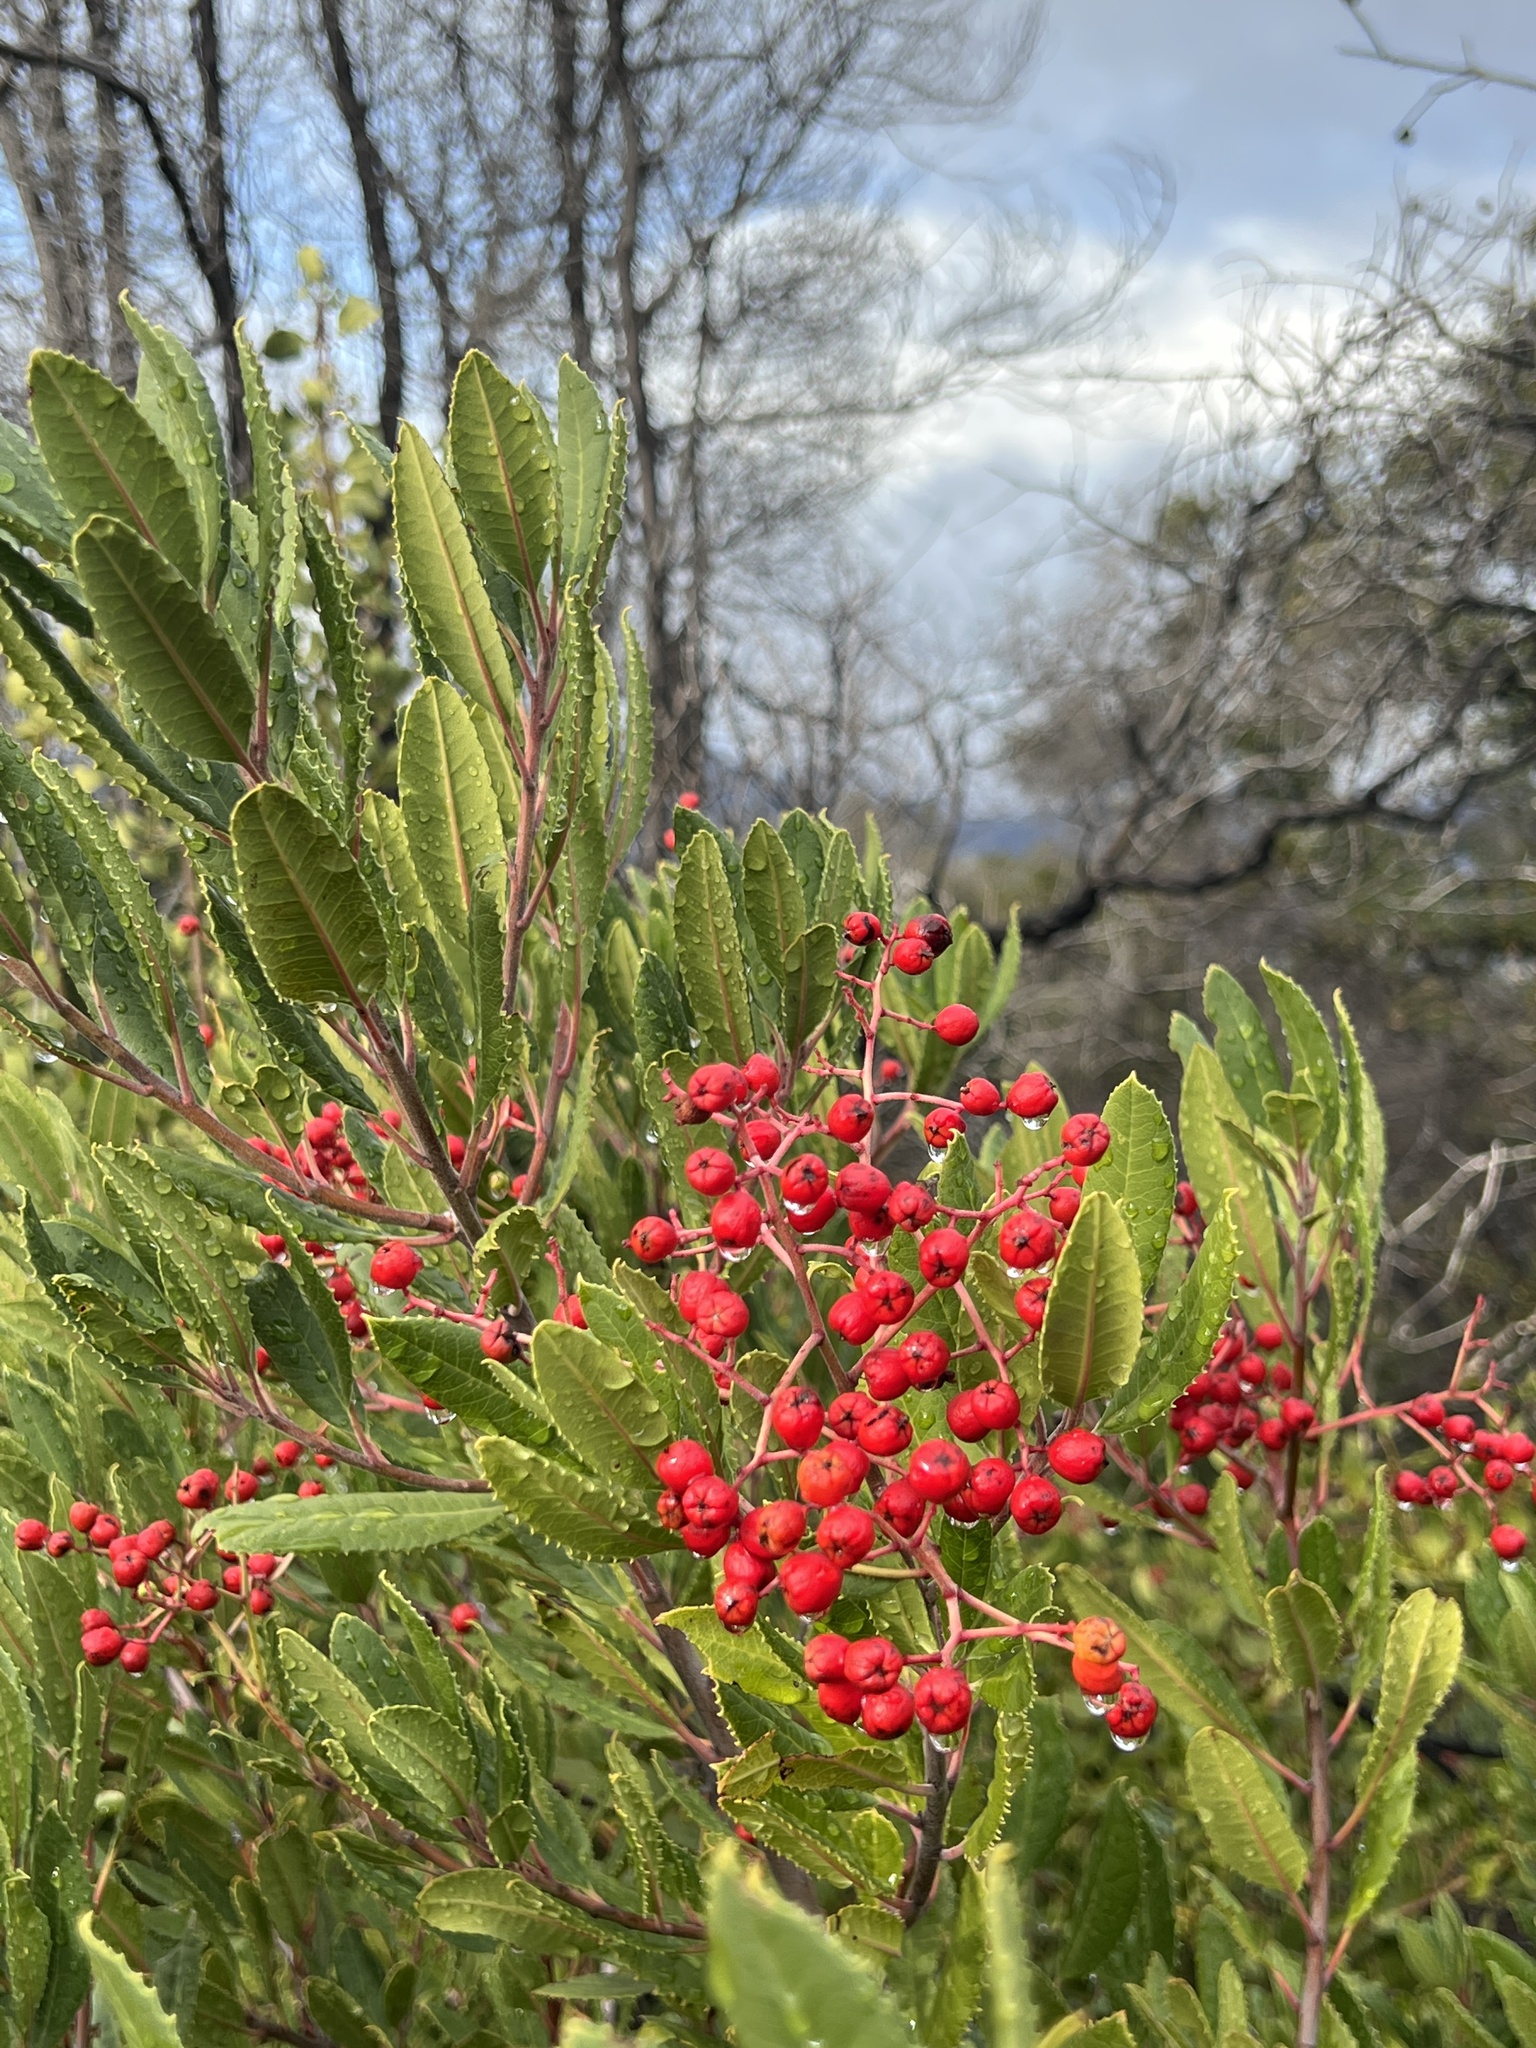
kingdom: Plantae
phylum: Tracheophyta
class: Magnoliopsida
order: Rosales
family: Rosaceae
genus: Heteromeles
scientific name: Heteromeles arbutifolia
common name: California-holly
